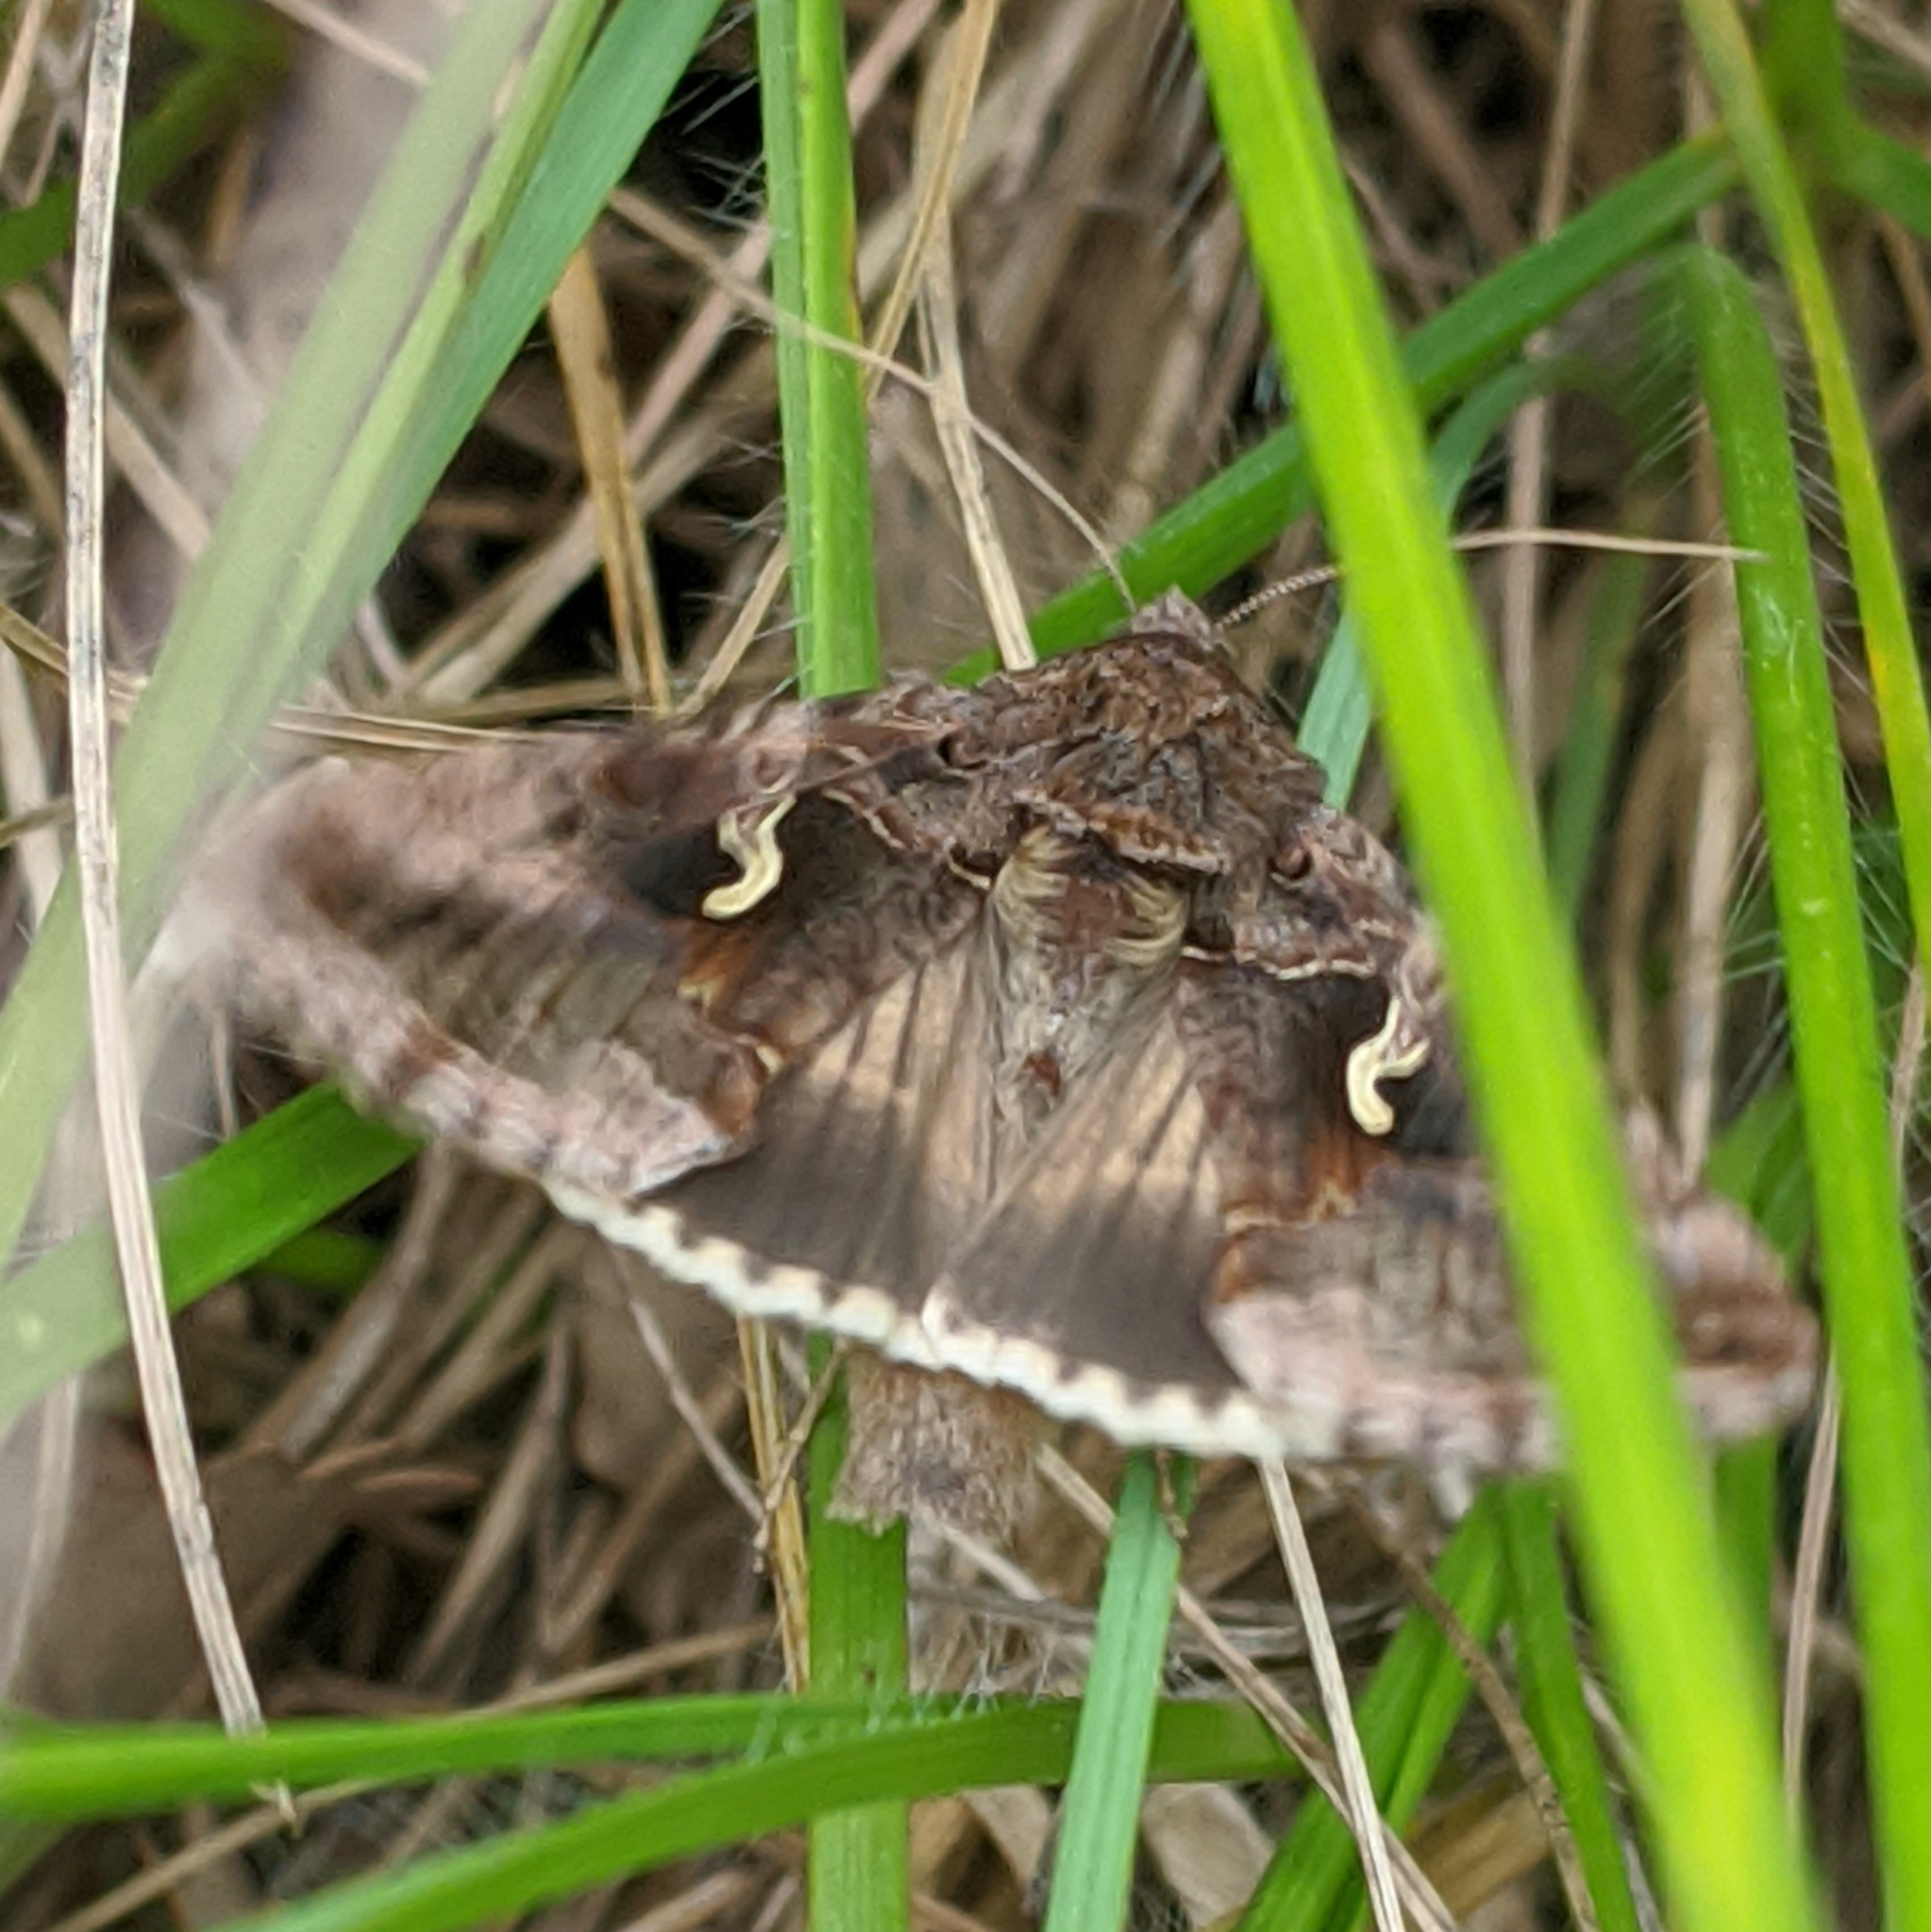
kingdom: Animalia
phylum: Arthropoda
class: Insecta
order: Lepidoptera
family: Noctuidae
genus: Autographa
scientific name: Autographa gamma
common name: Silver y
